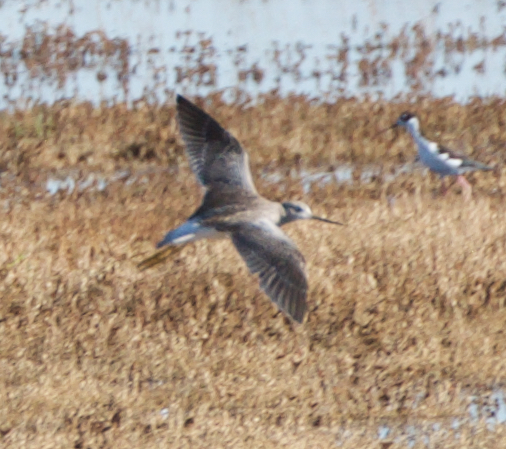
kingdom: Animalia
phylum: Chordata
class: Aves
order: Charadriiformes
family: Scolopacidae
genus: Tringa
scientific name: Tringa melanoleuca
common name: Greater yellowlegs
